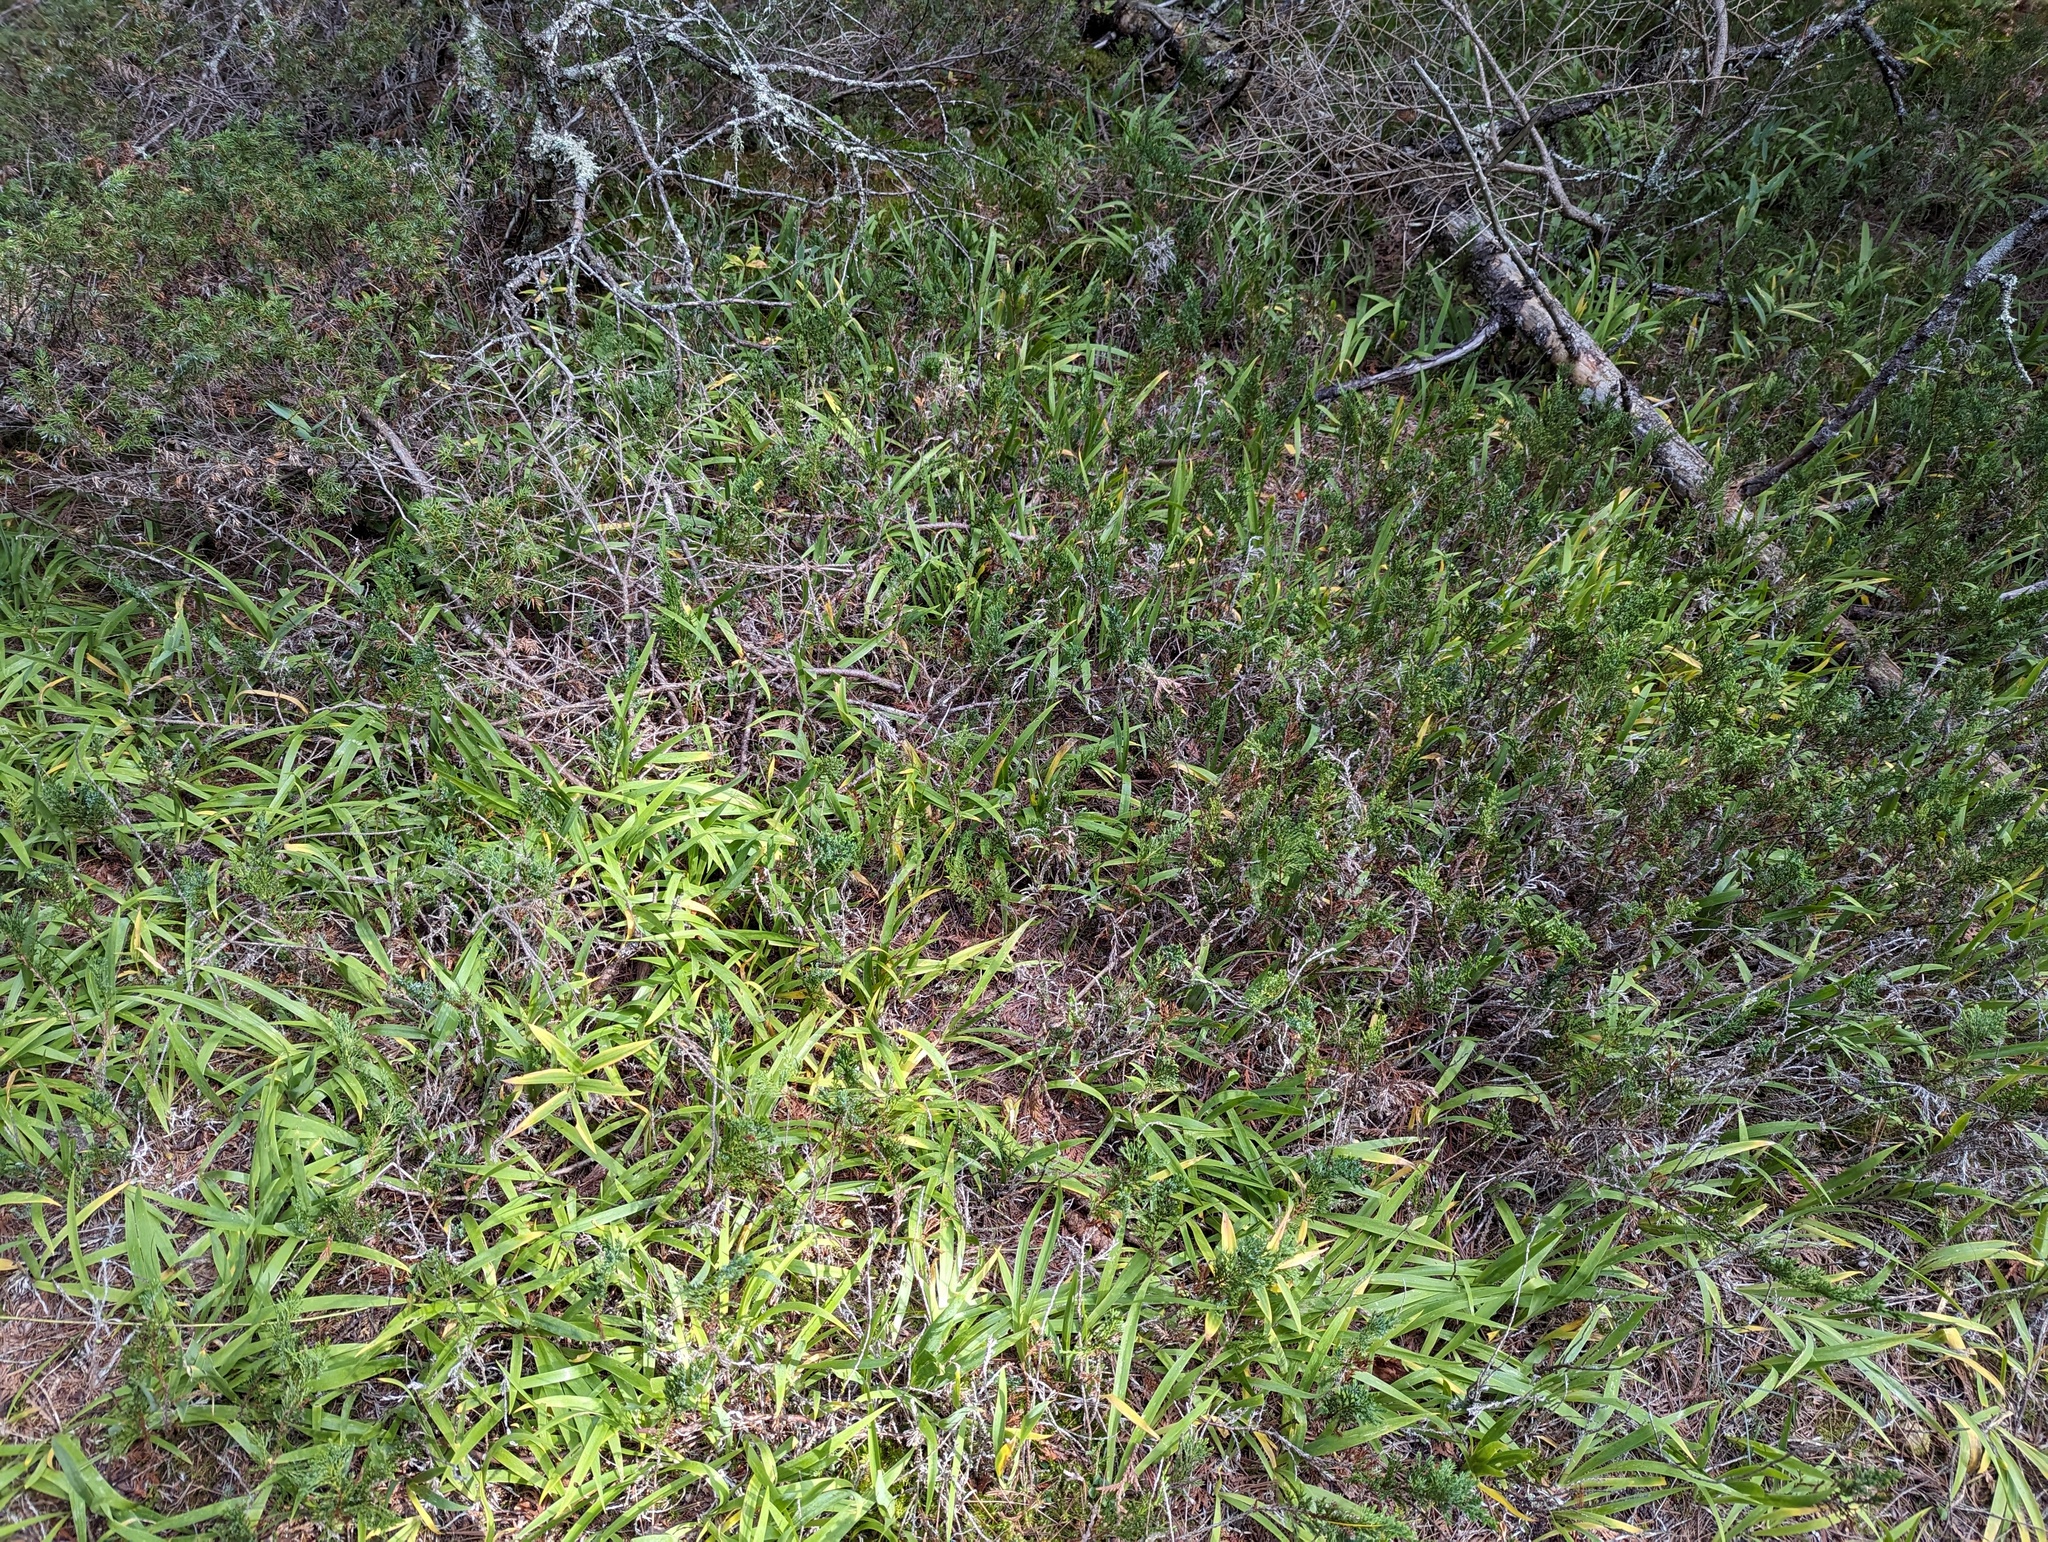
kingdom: Plantae
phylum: Tracheophyta
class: Liliopsida
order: Asparagales
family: Iridaceae
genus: Iris
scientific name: Iris lacustris
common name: Dwarf lake iris
